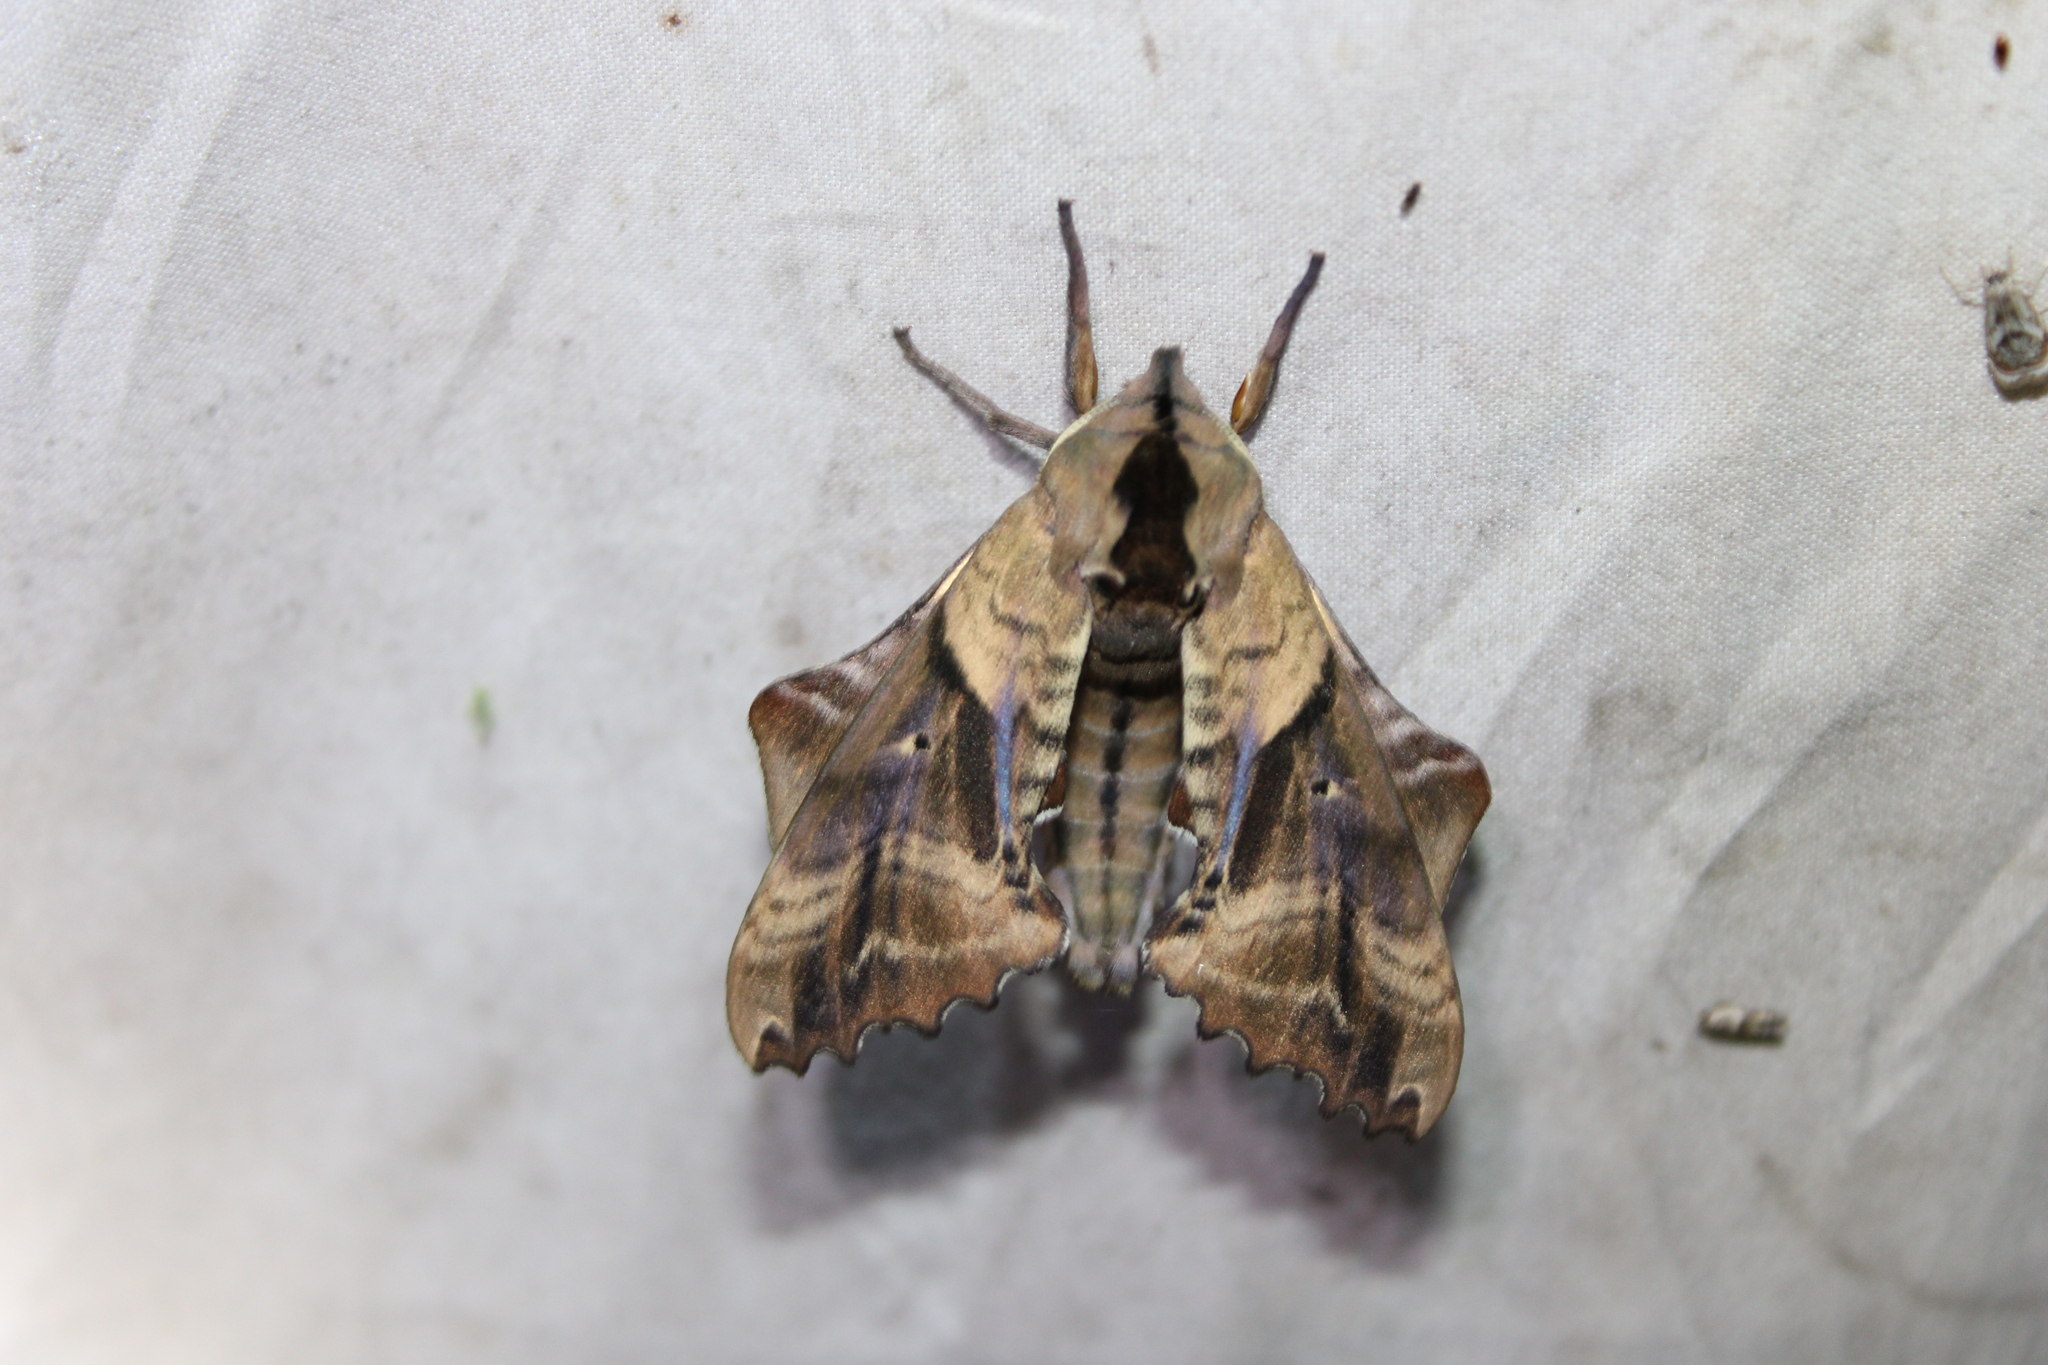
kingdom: Animalia
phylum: Arthropoda
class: Insecta
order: Lepidoptera
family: Sphingidae
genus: Paonias
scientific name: Paonias excaecata
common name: Blind-eyed sphinx
